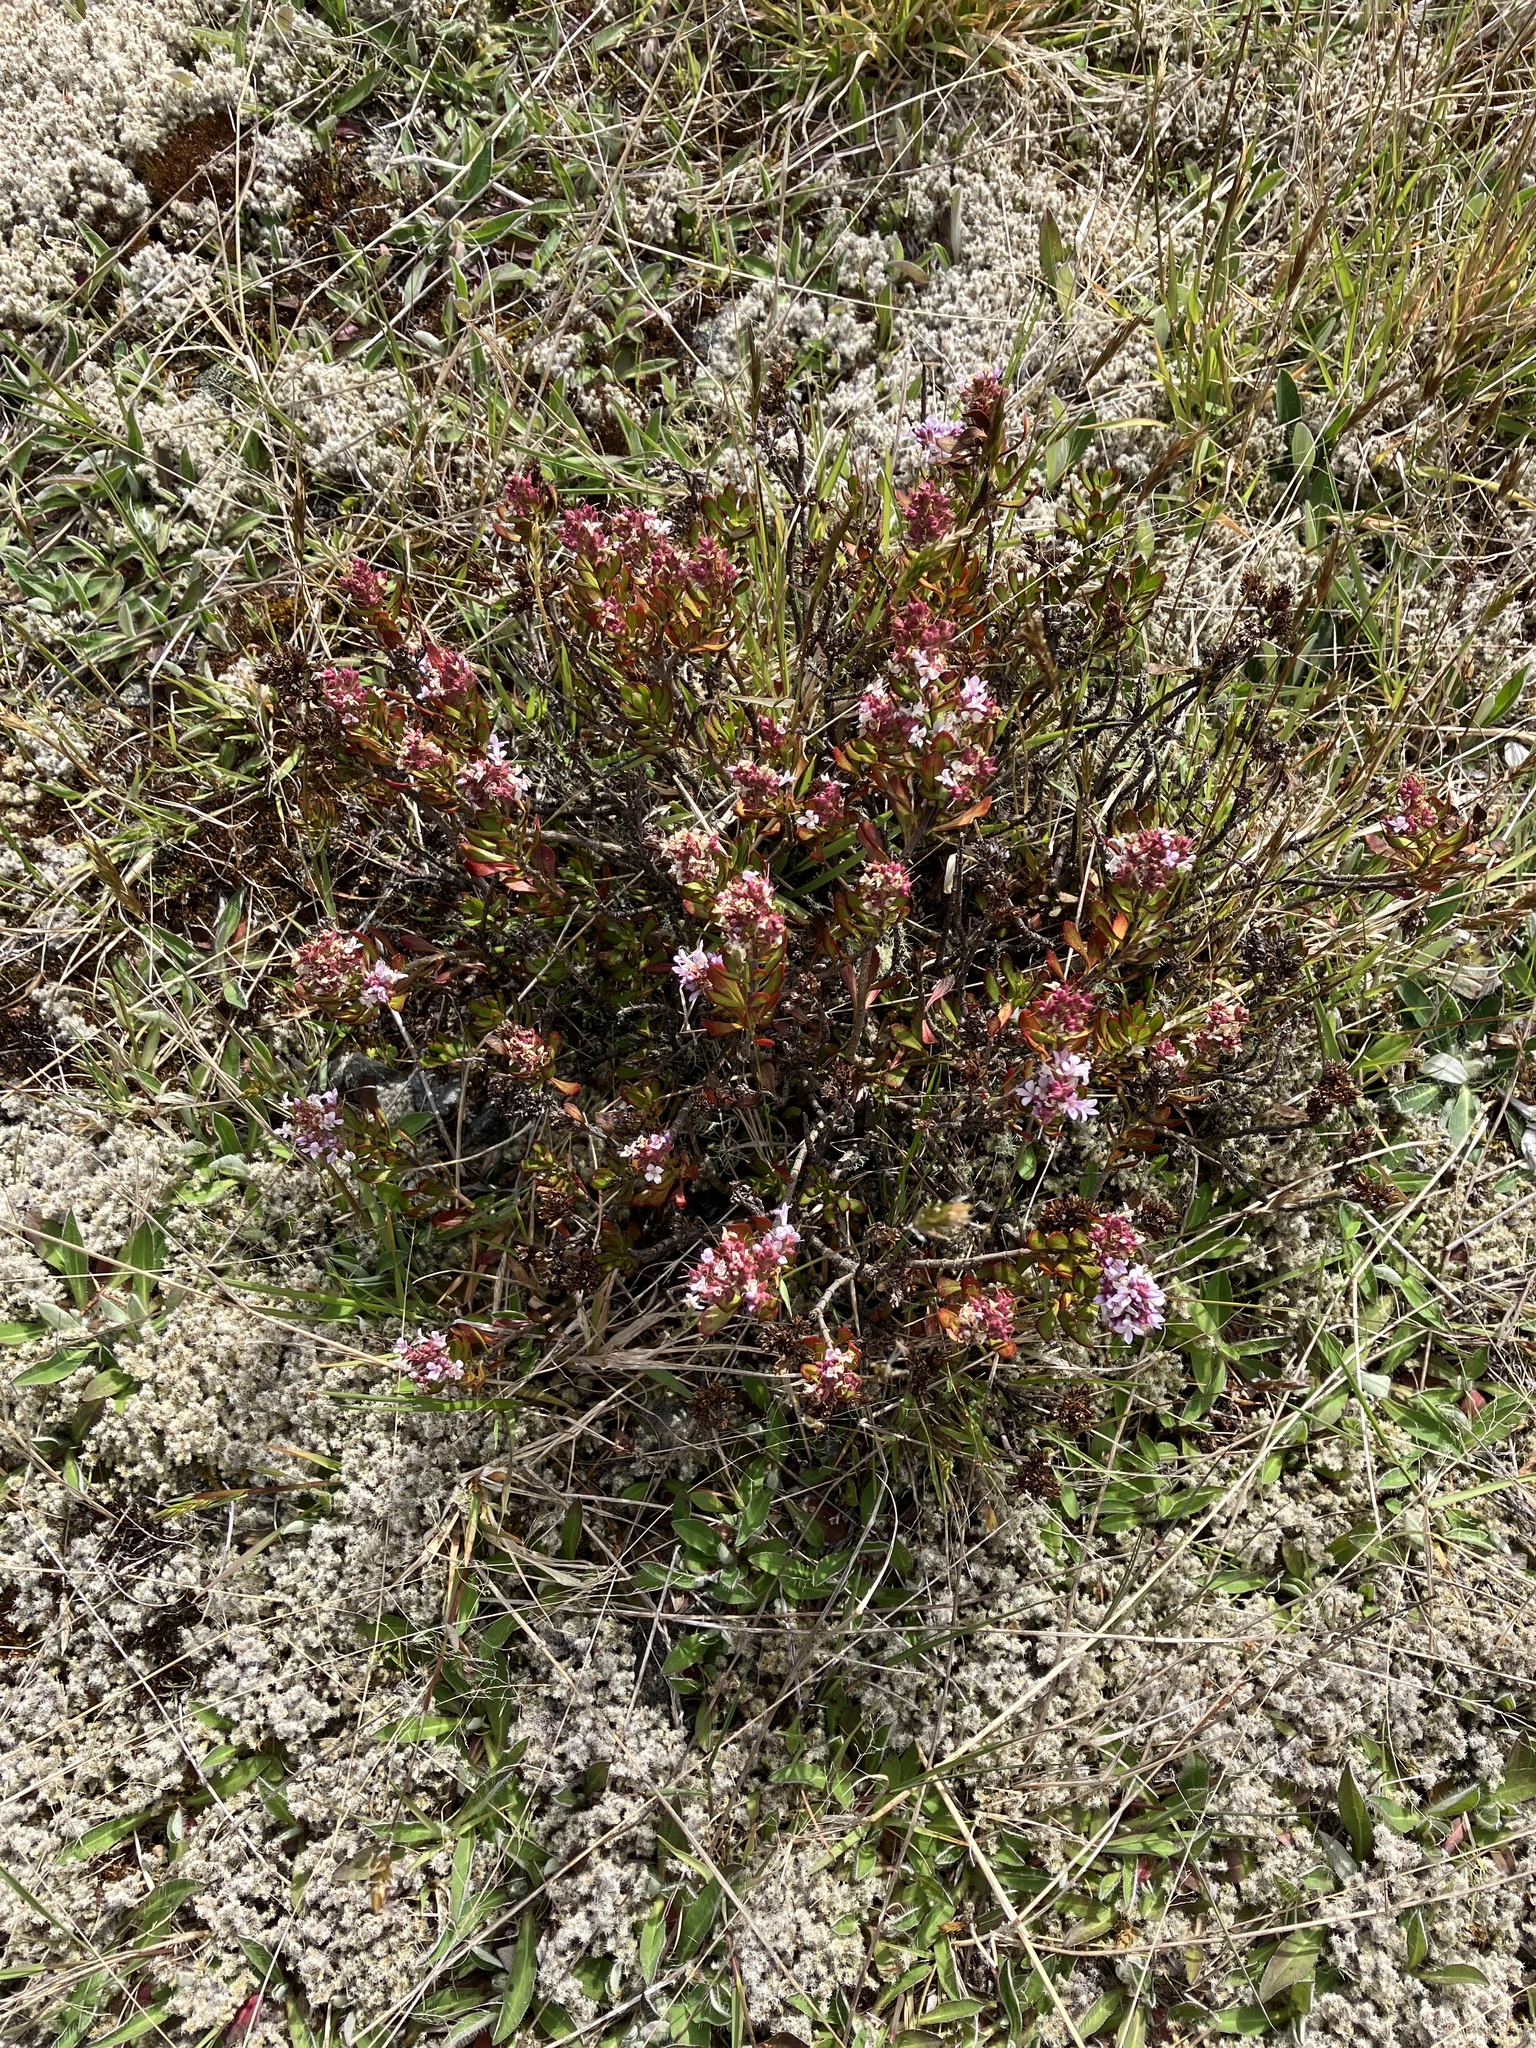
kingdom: Plantae
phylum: Tracheophyta
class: Magnoliopsida
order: Lamiales
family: Plantaginaceae
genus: Veronica
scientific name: Veronica raoulii
